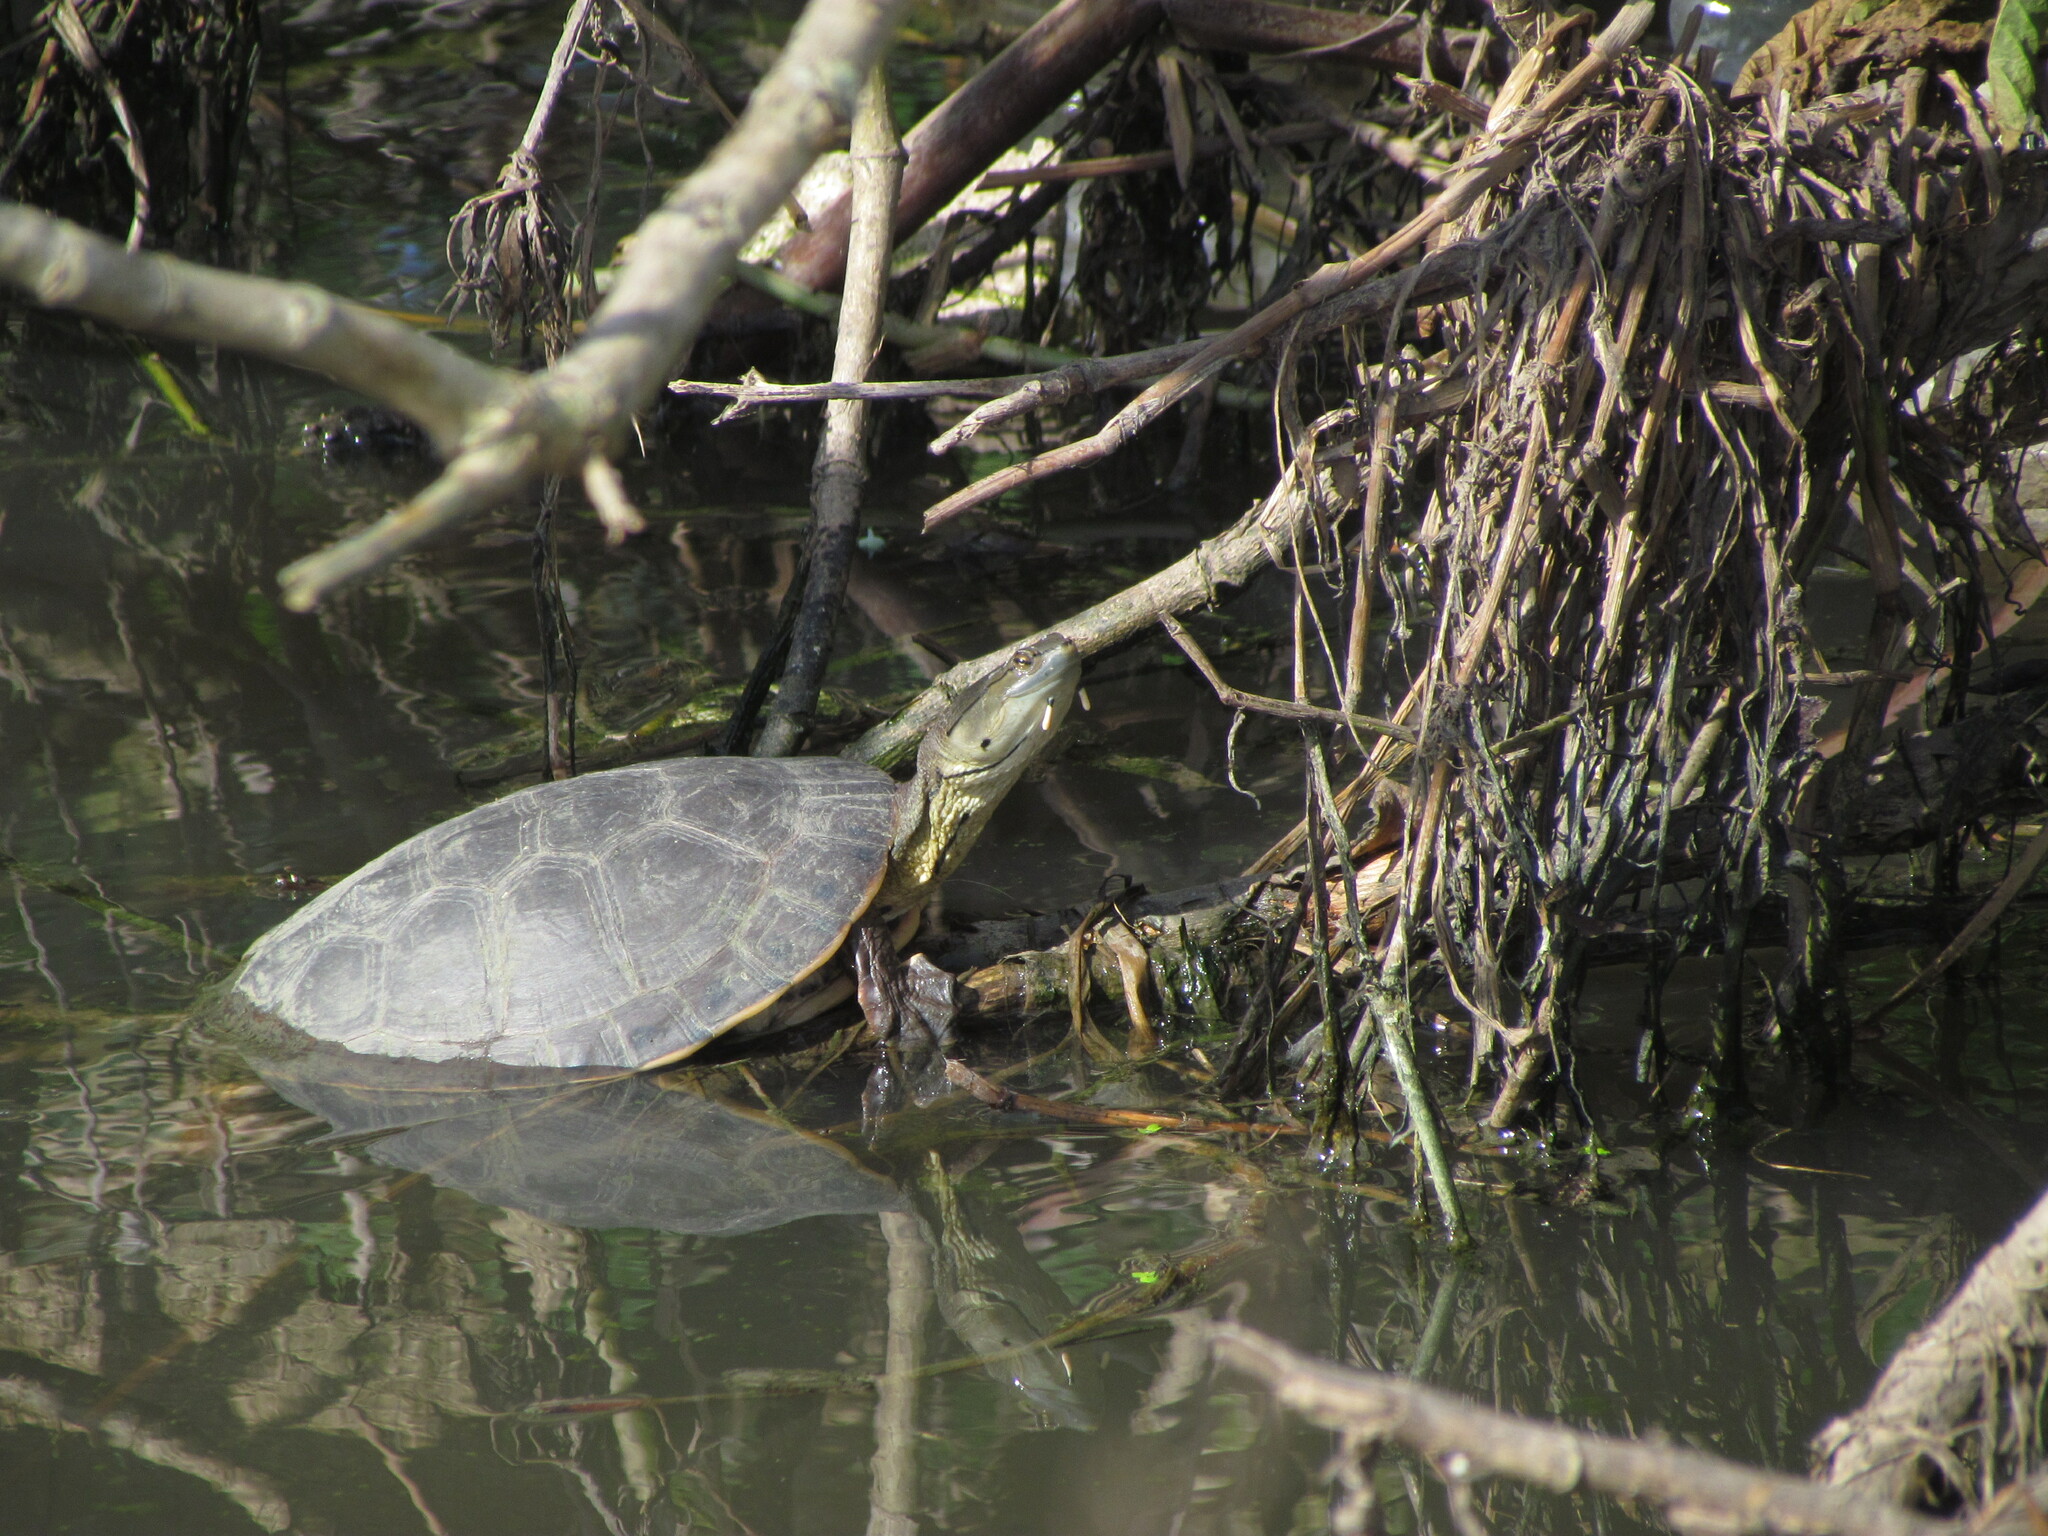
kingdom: Animalia
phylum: Chordata
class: Testudines
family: Chelidae
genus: Phrynops
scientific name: Phrynops hilarii
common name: Side-necked turtle of saint hillaire
